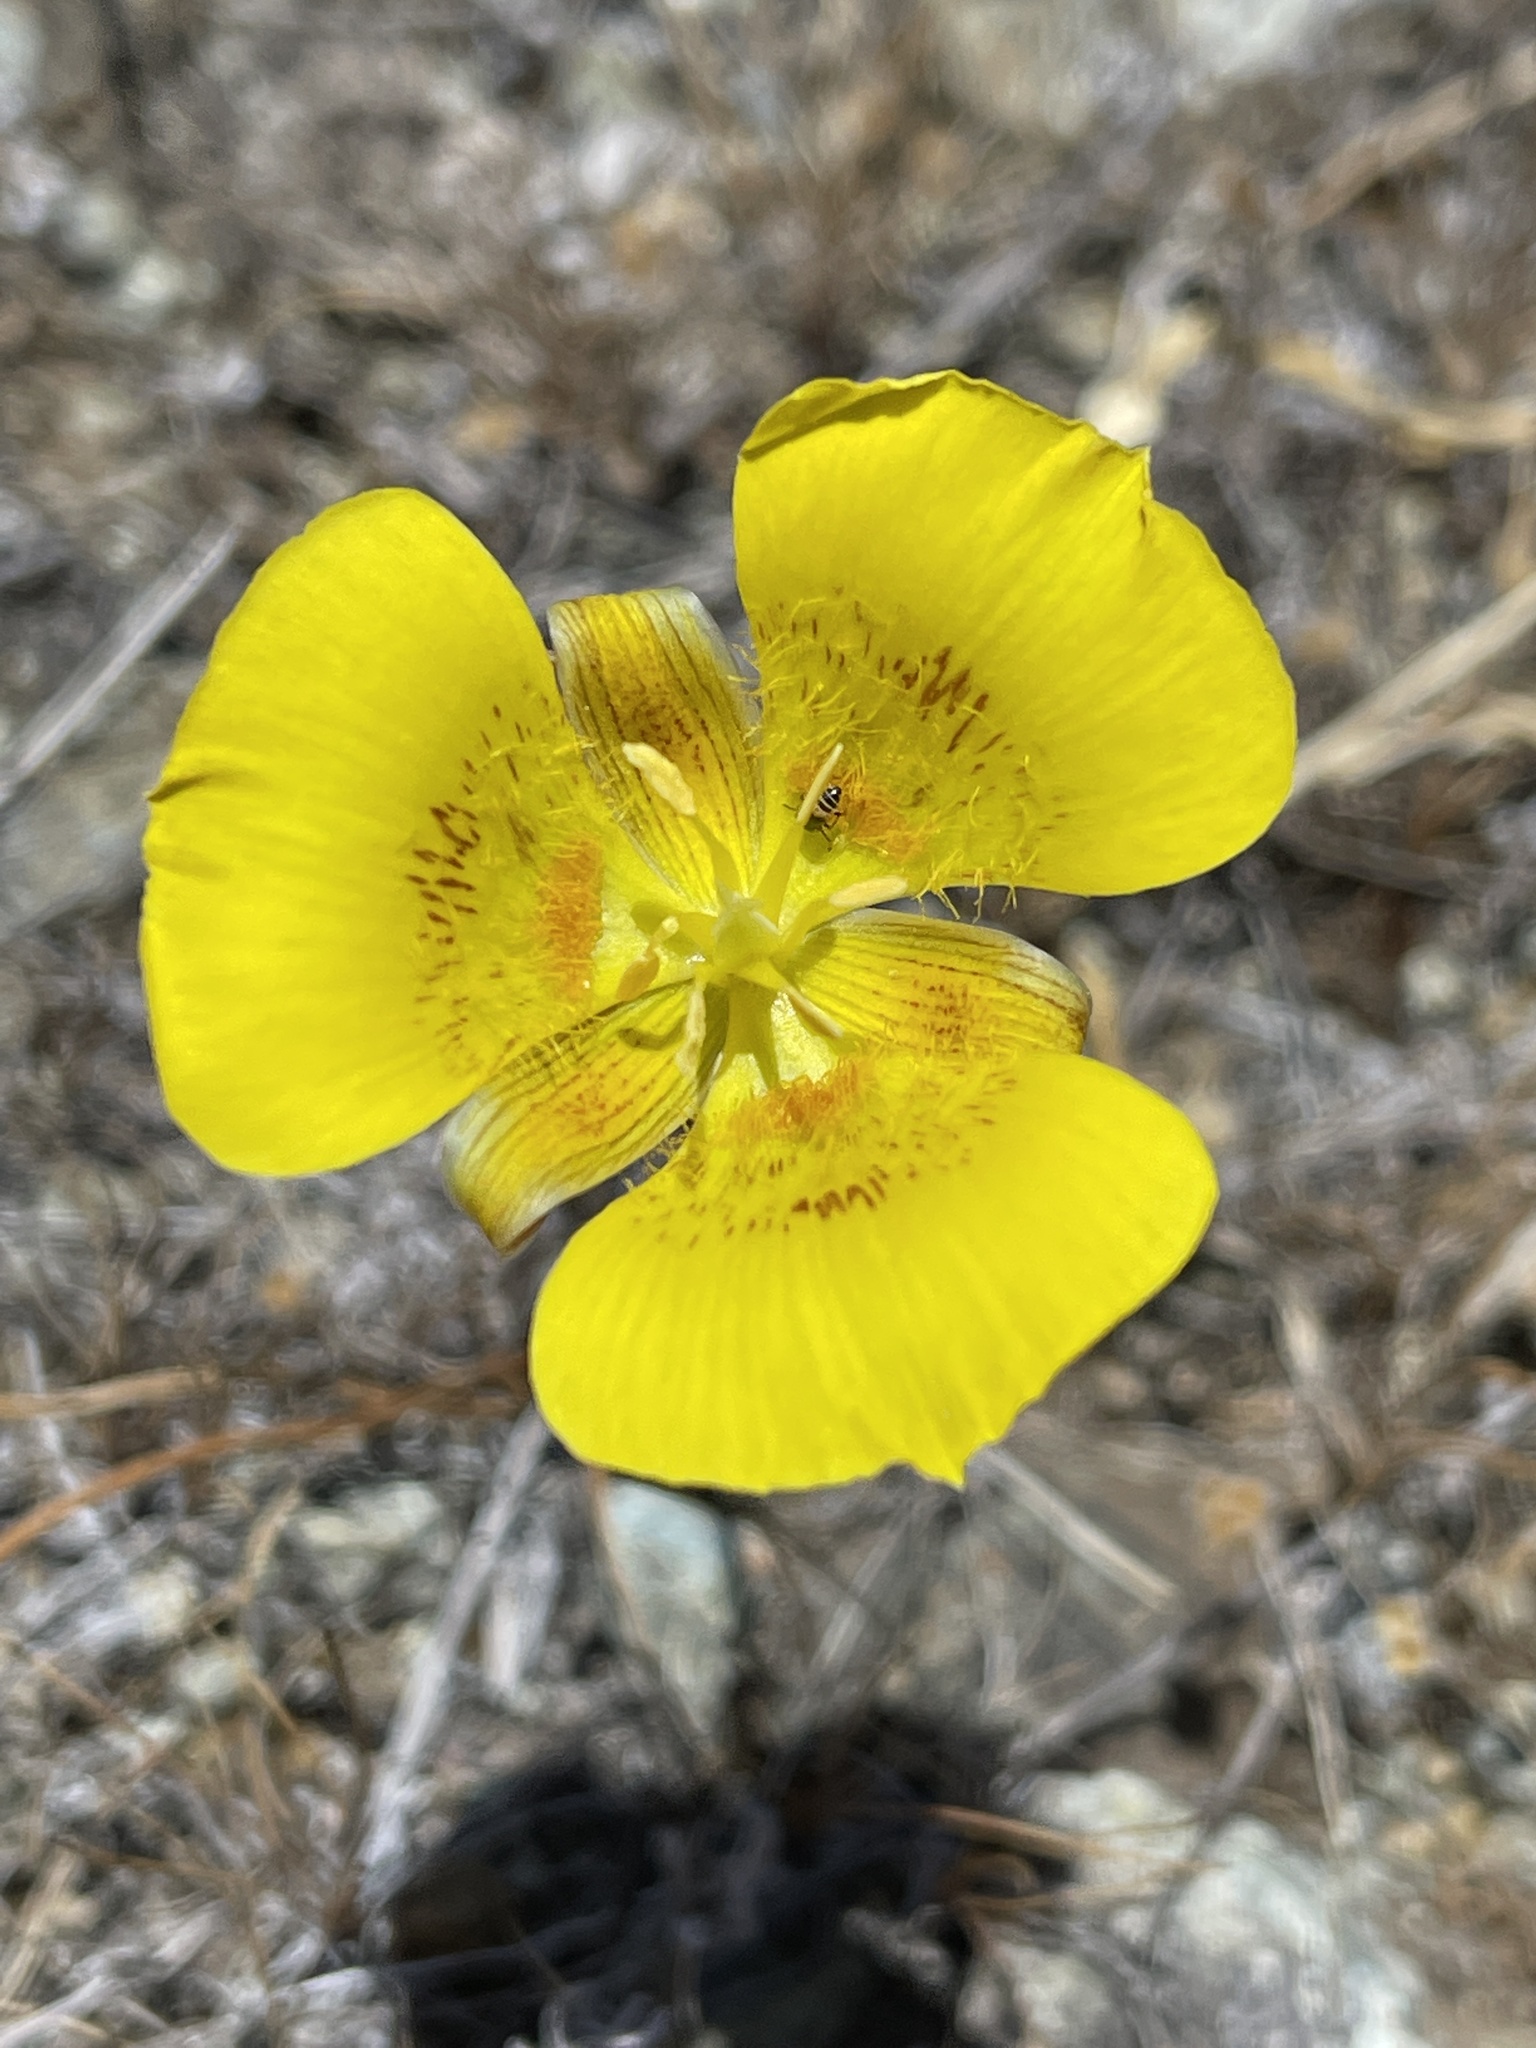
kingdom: Plantae
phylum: Tracheophyta
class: Liliopsida
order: Liliales
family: Liliaceae
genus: Calochortus
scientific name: Calochortus luteus
